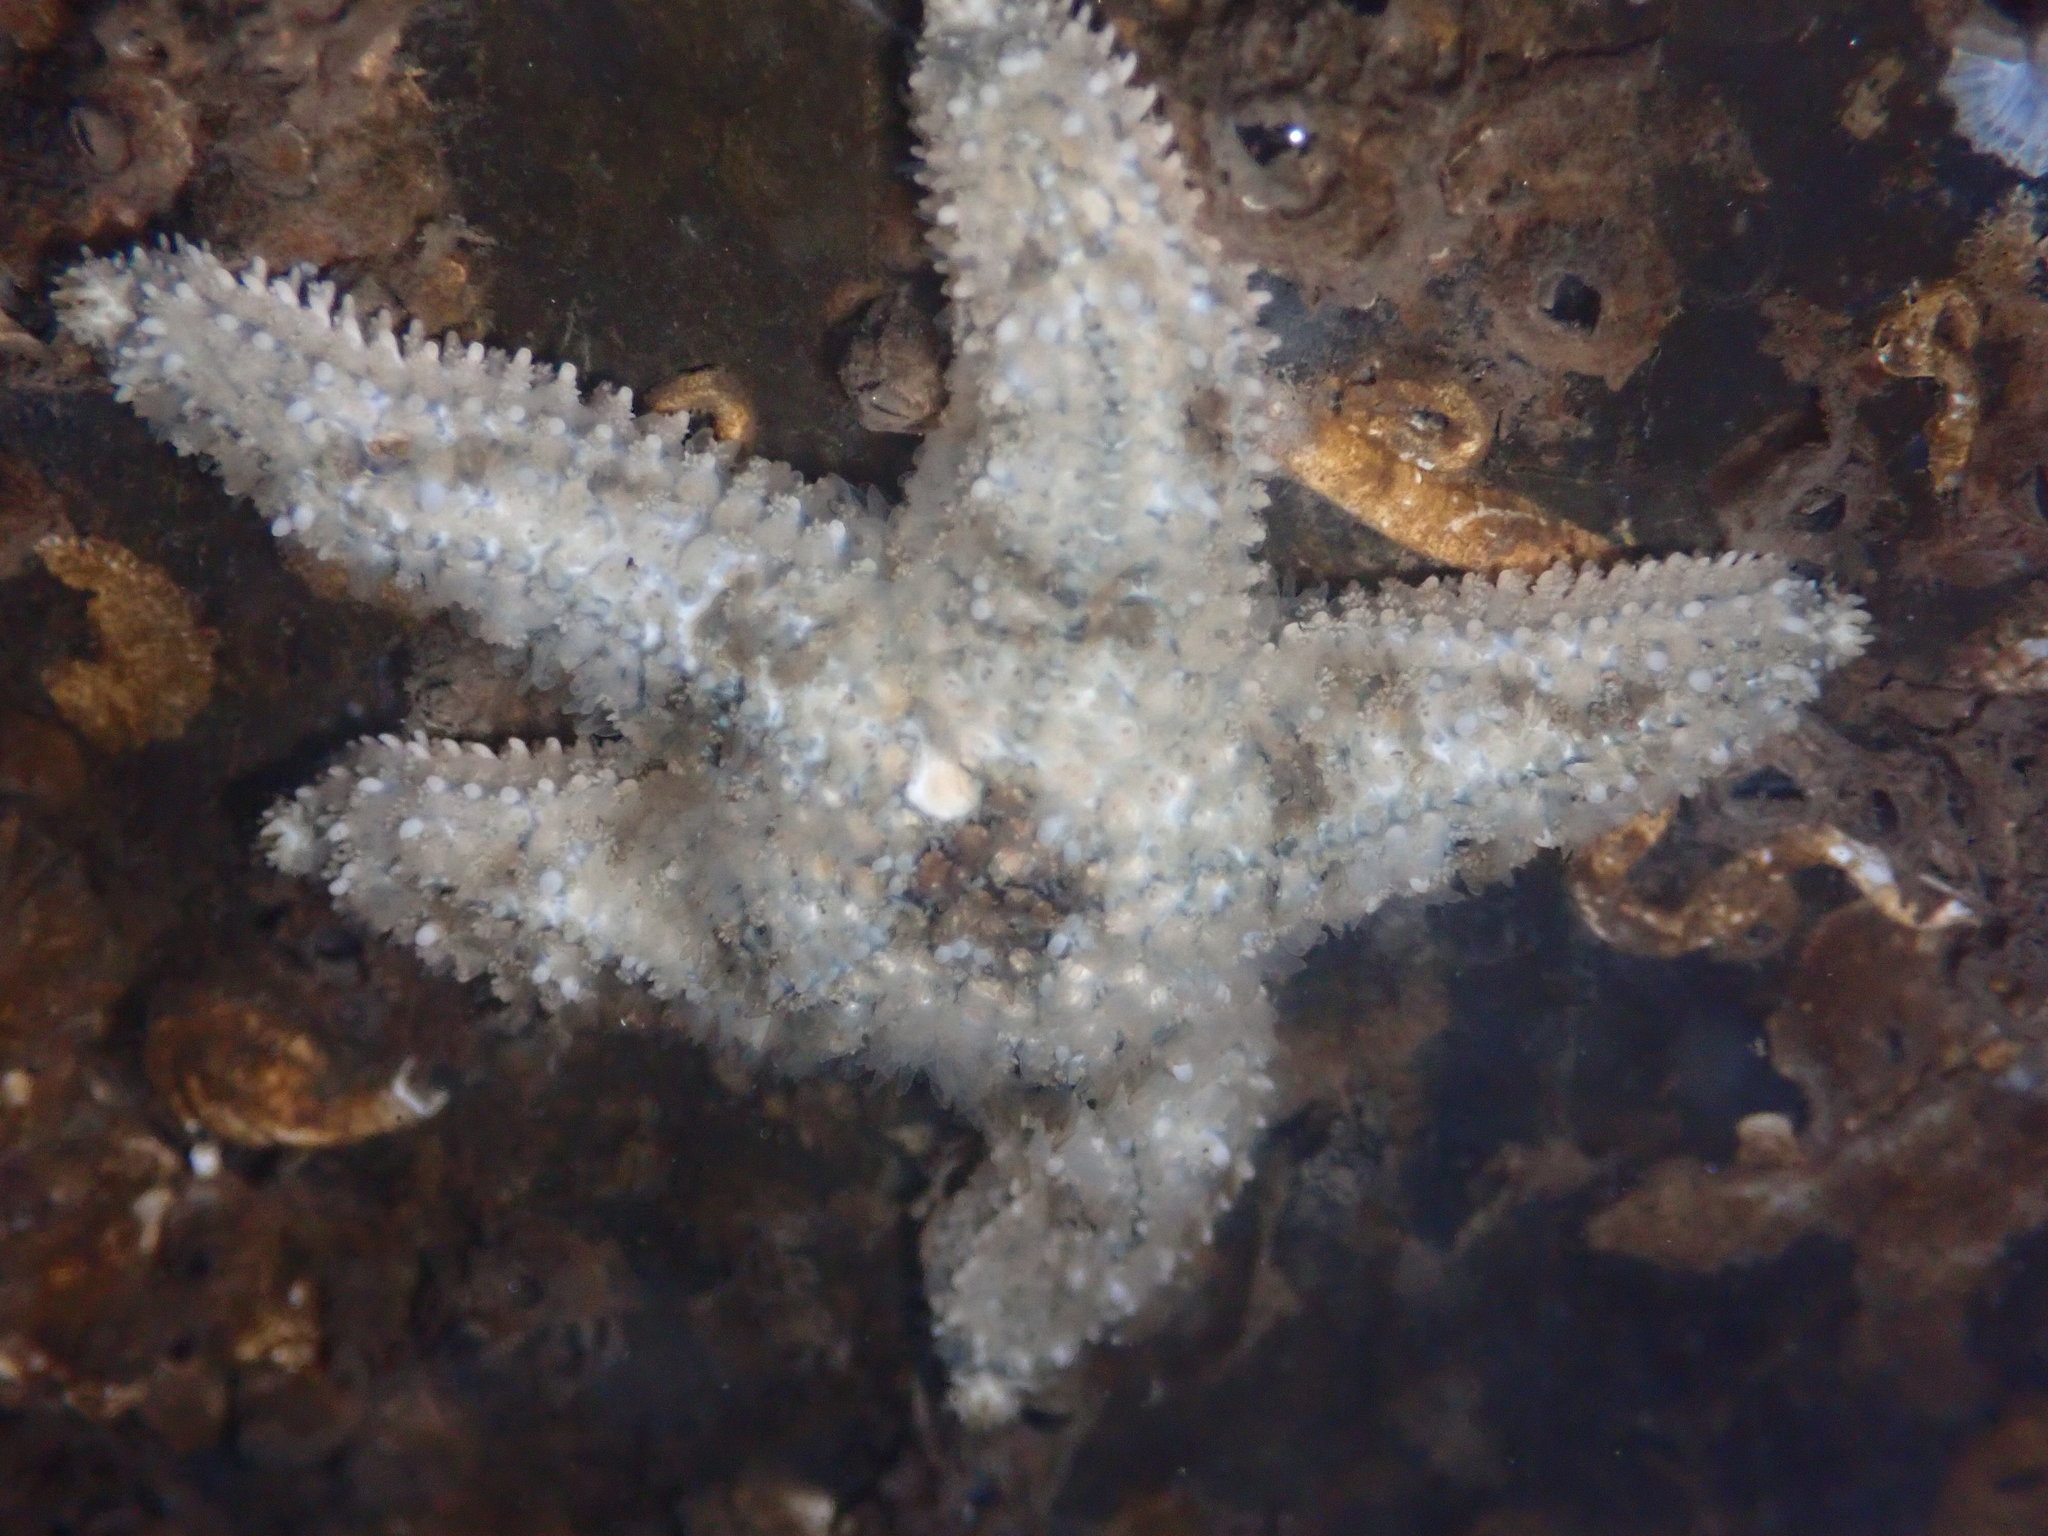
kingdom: Animalia
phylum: Echinodermata
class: Asteroidea
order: Forcipulatida
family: Asteriidae
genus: Pisaster
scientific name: Pisaster ochraceus
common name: Ochre stars
